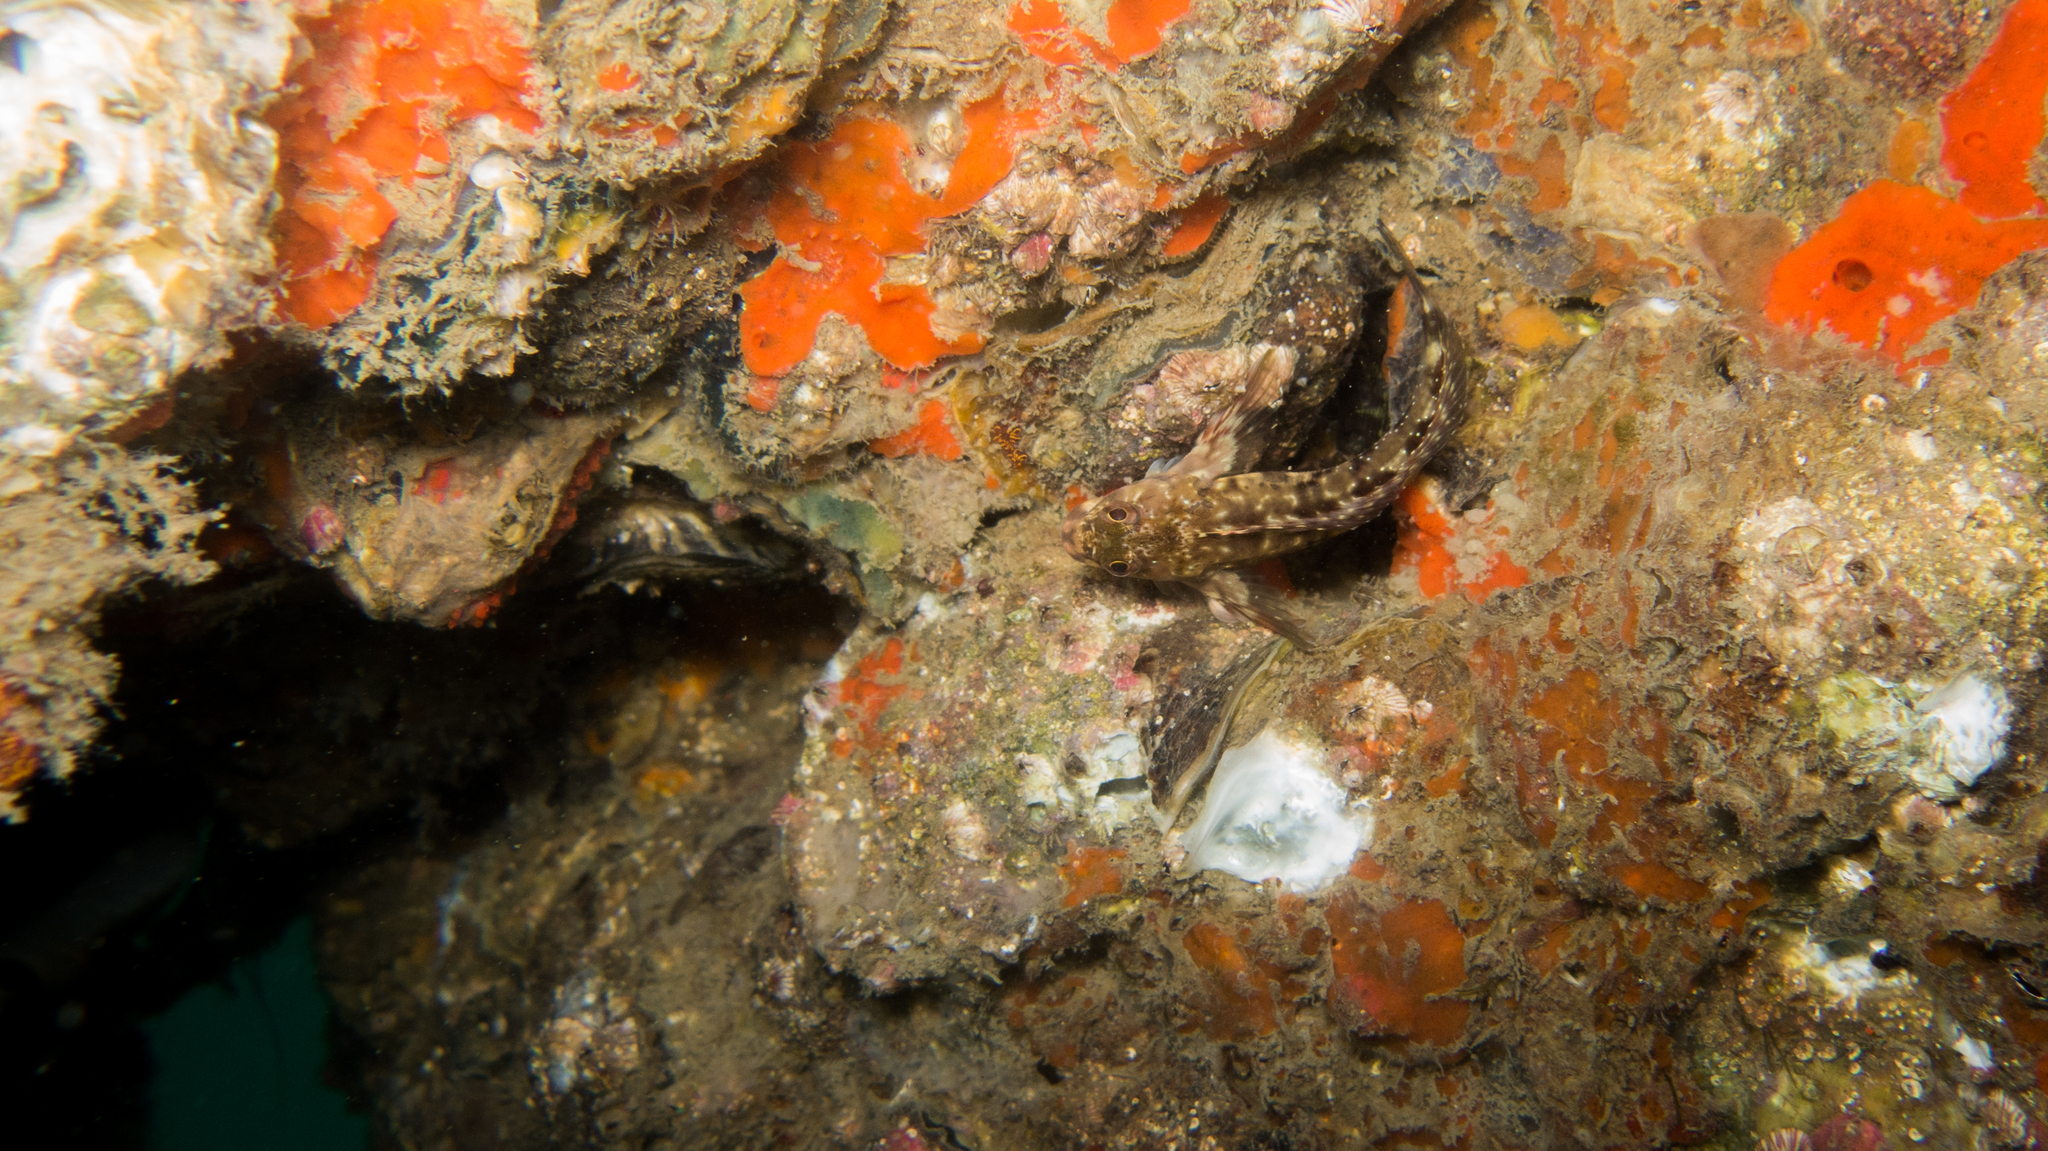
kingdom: Animalia
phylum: Chordata
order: Perciformes
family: Blenniidae
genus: Scartella
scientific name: Scartella cristata
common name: Molly miller
